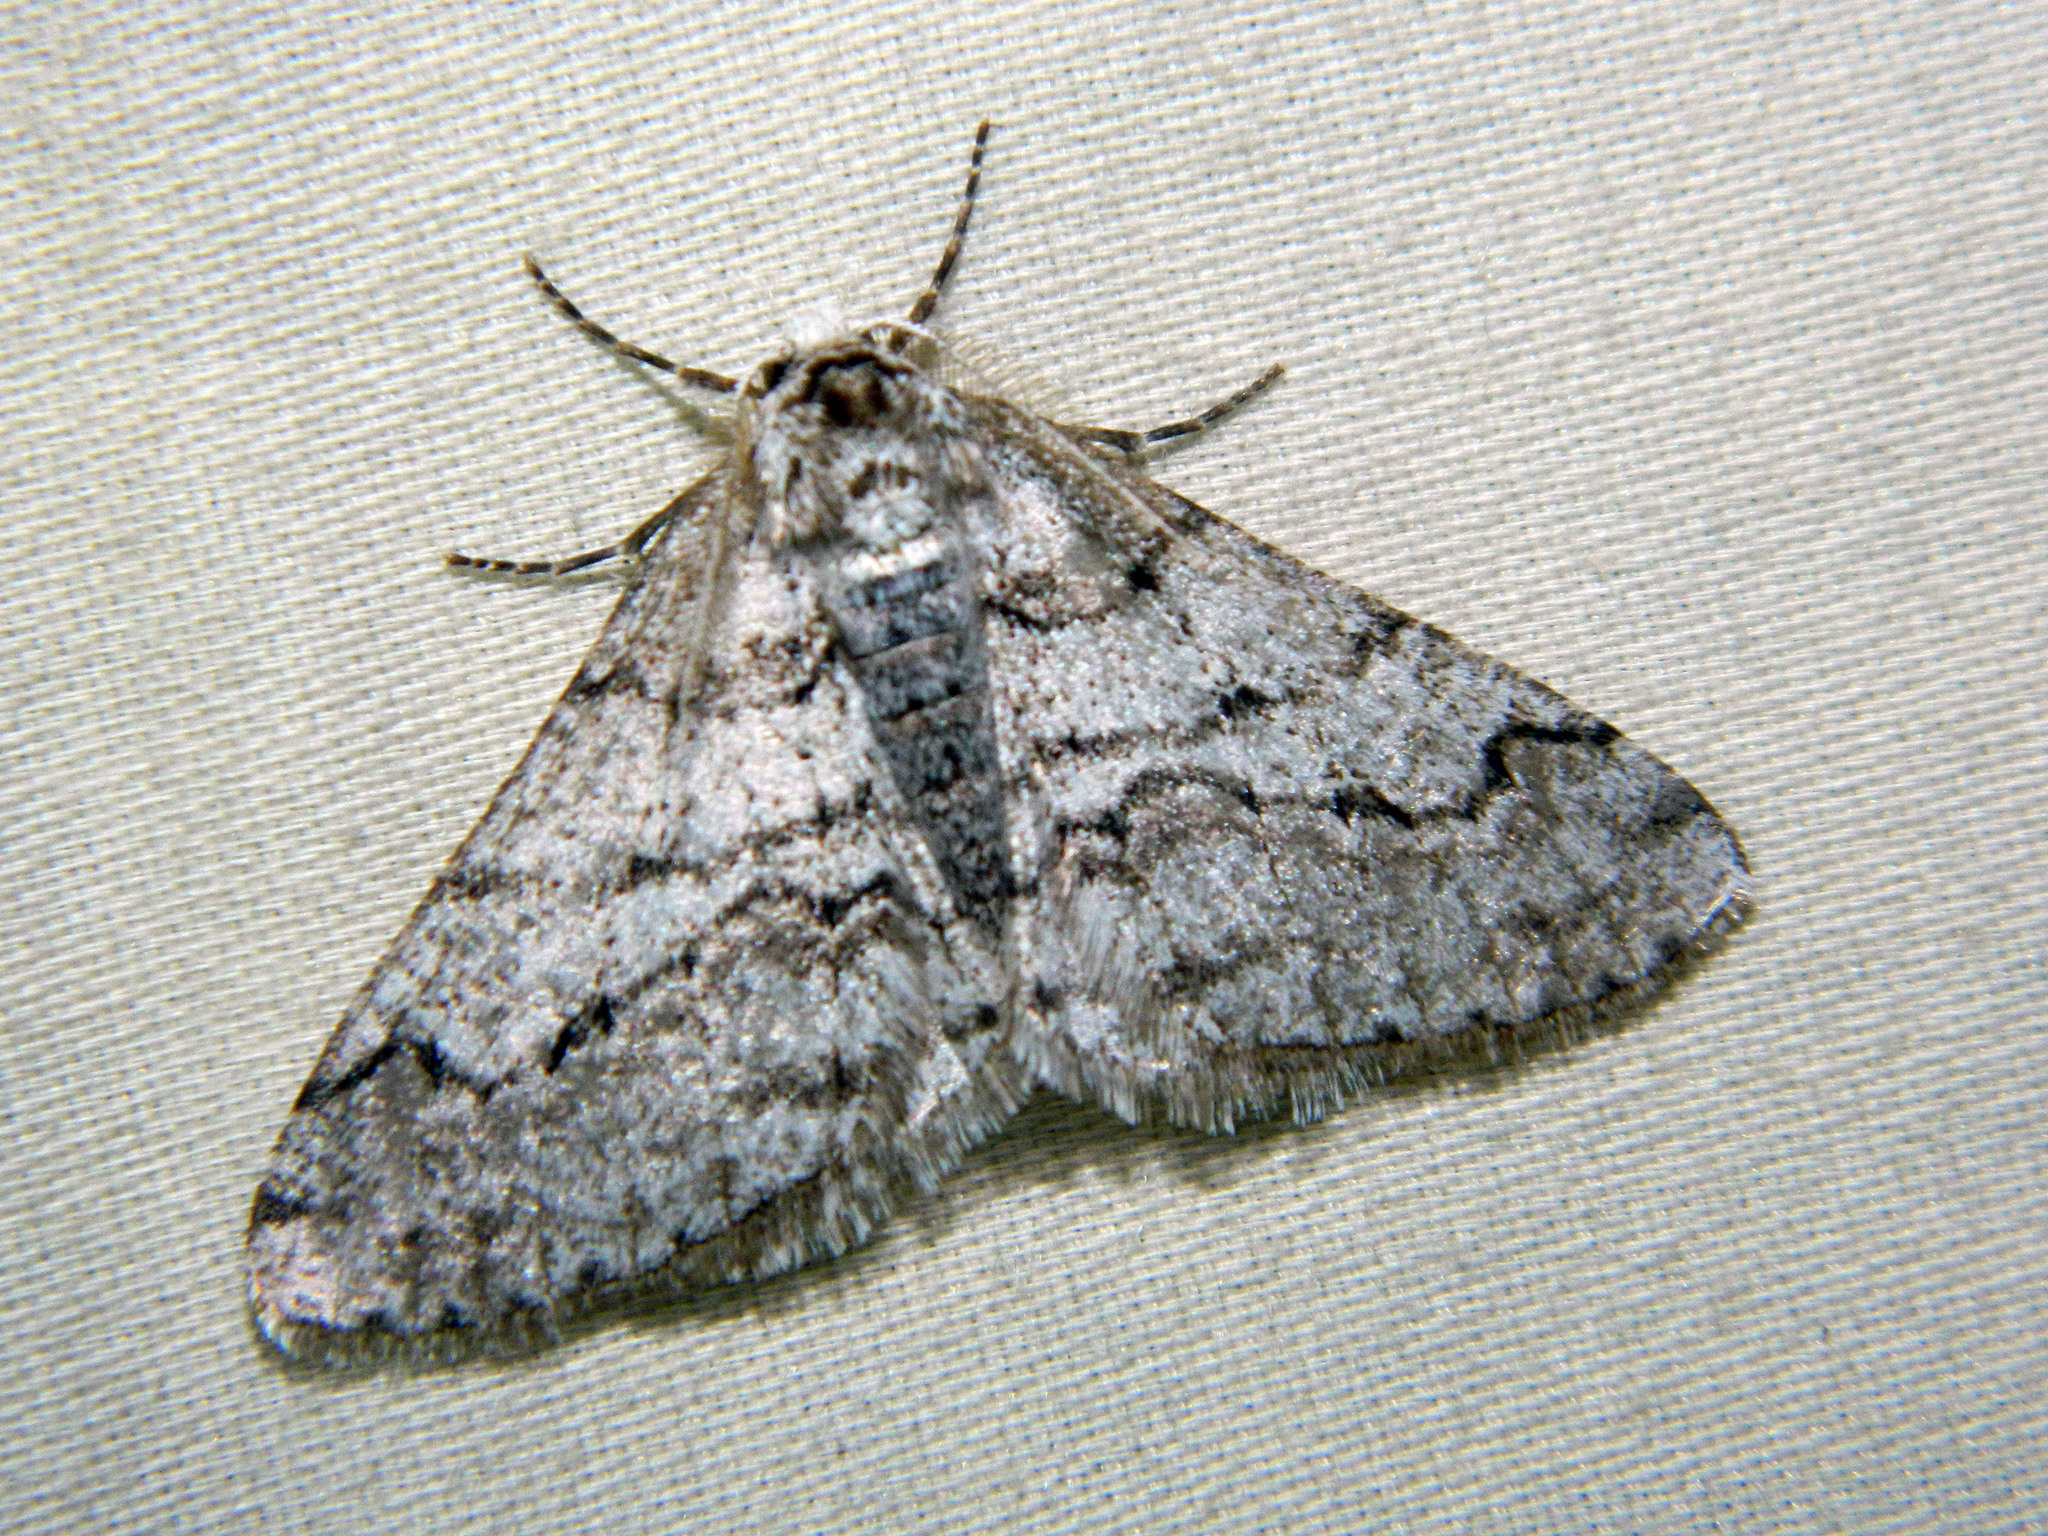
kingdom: Animalia
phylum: Arthropoda
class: Insecta
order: Lepidoptera
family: Geometridae
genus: Phigalia
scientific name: Phigalia titea
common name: Spiny looper
